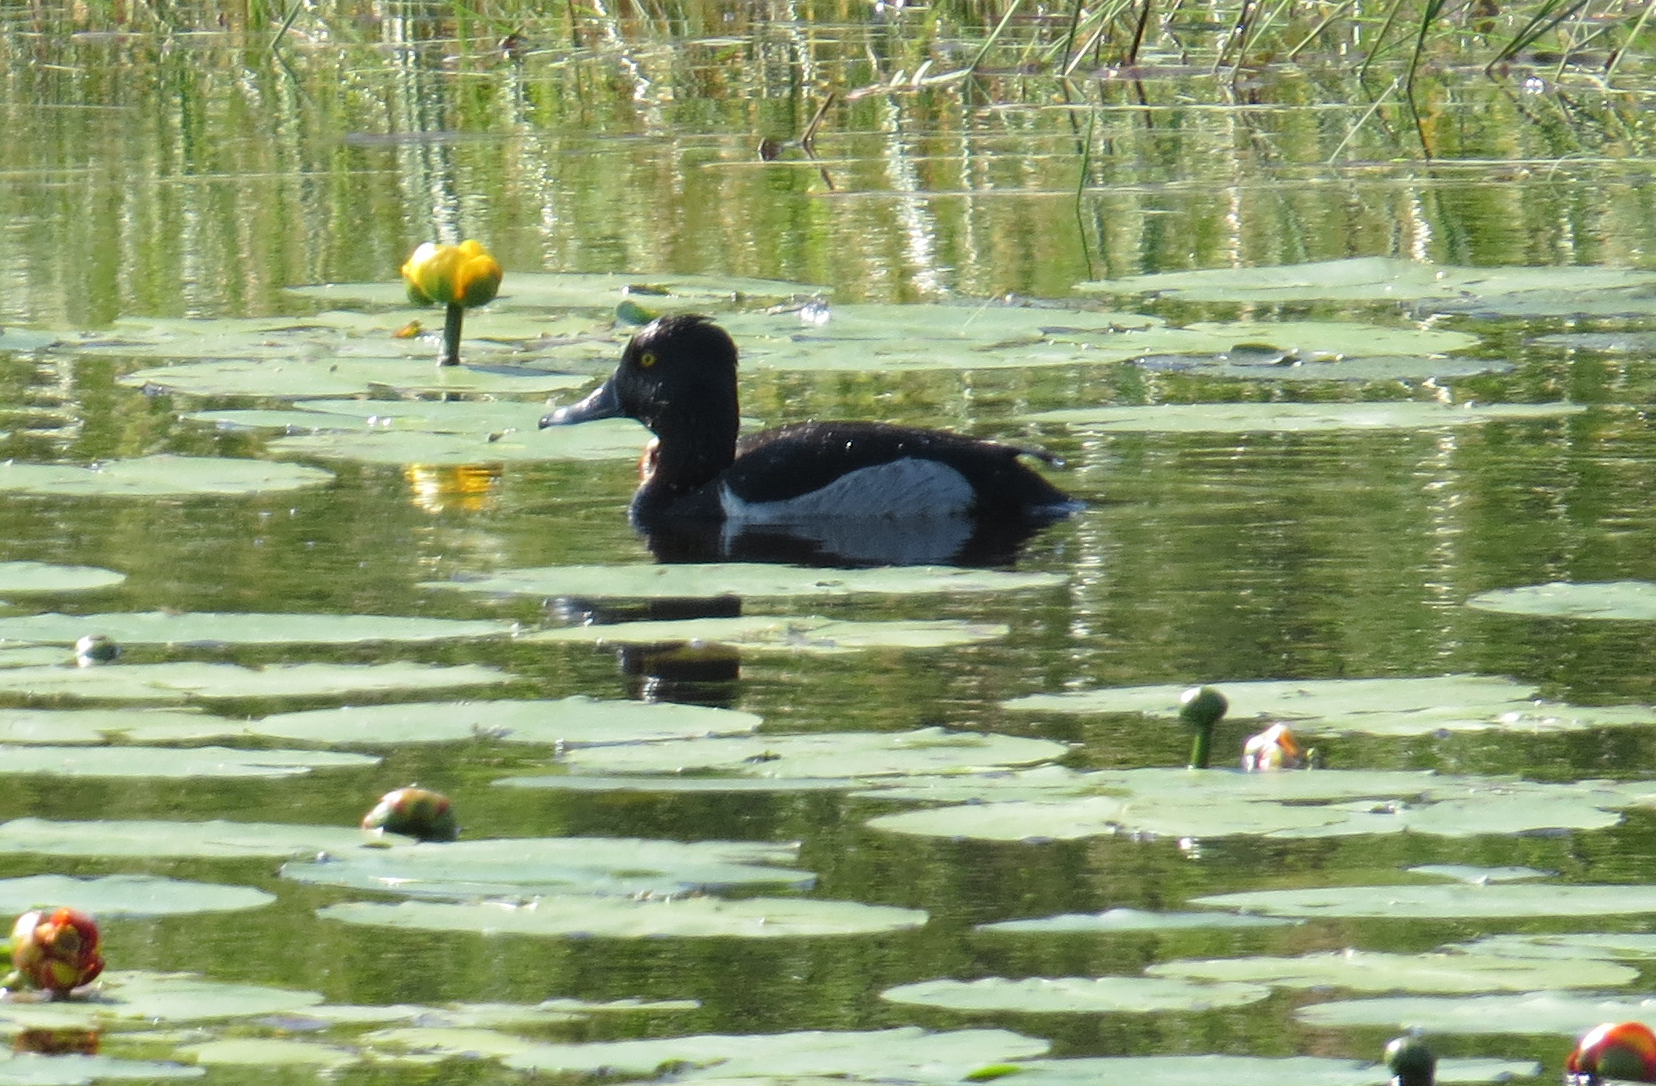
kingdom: Animalia
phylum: Chordata
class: Aves
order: Anseriformes
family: Anatidae
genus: Aythya
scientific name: Aythya collaris
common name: Ring-necked duck
